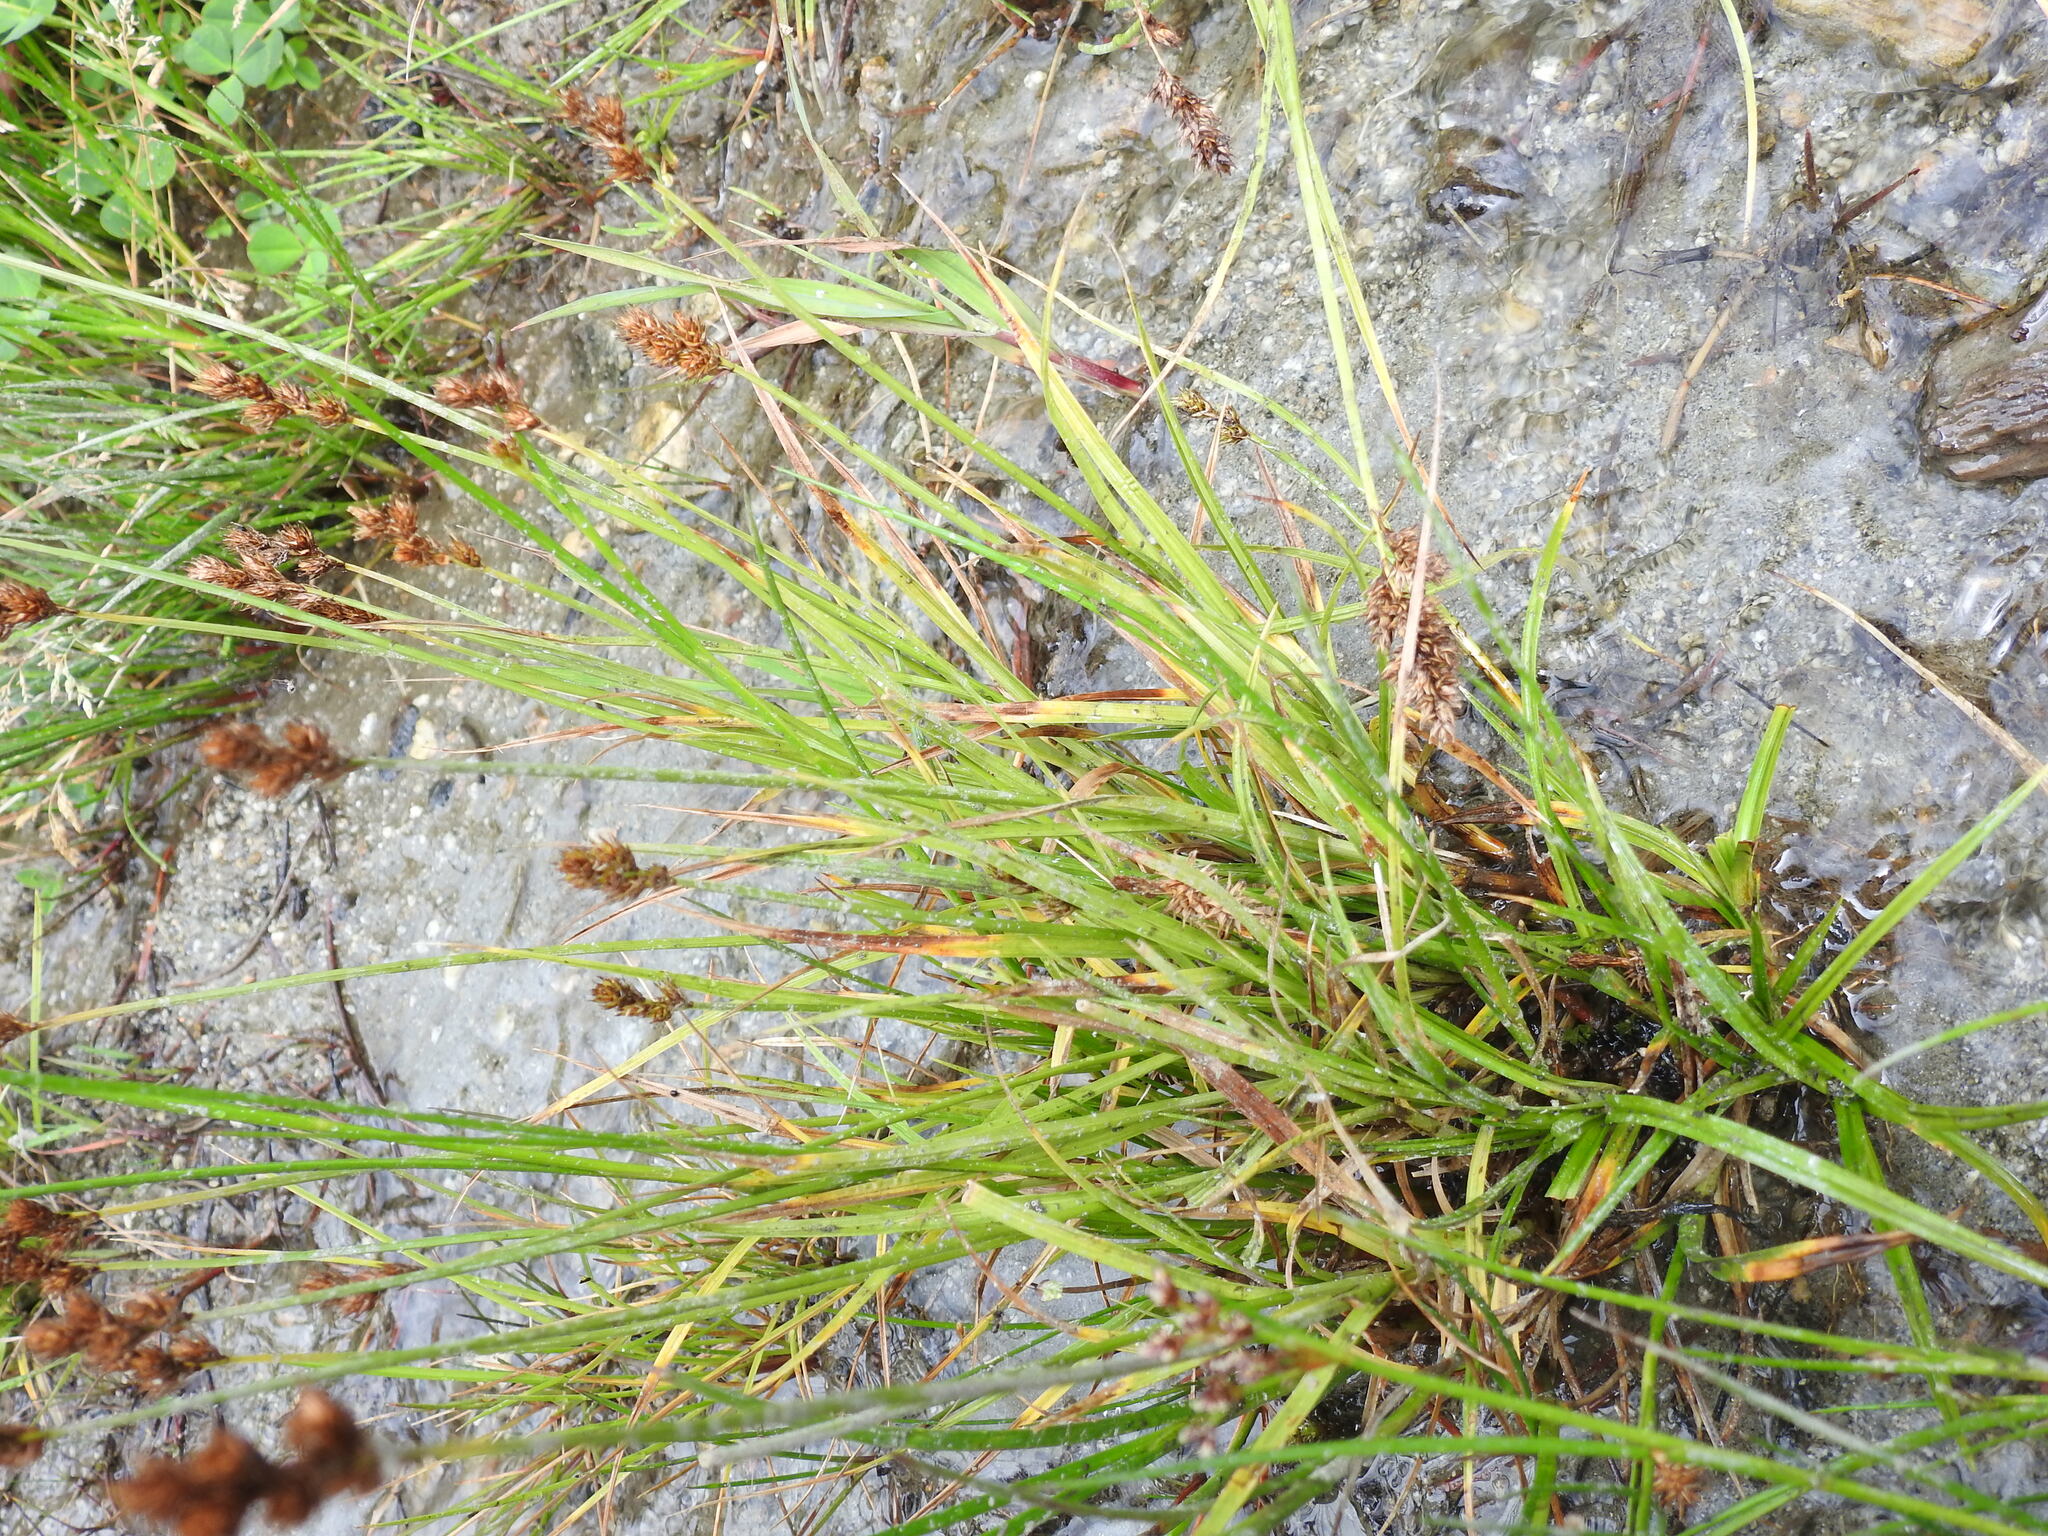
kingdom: Plantae
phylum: Tracheophyta
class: Liliopsida
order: Poales
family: Cyperaceae
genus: Carex
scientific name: Carex leporina
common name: Oval sedge
